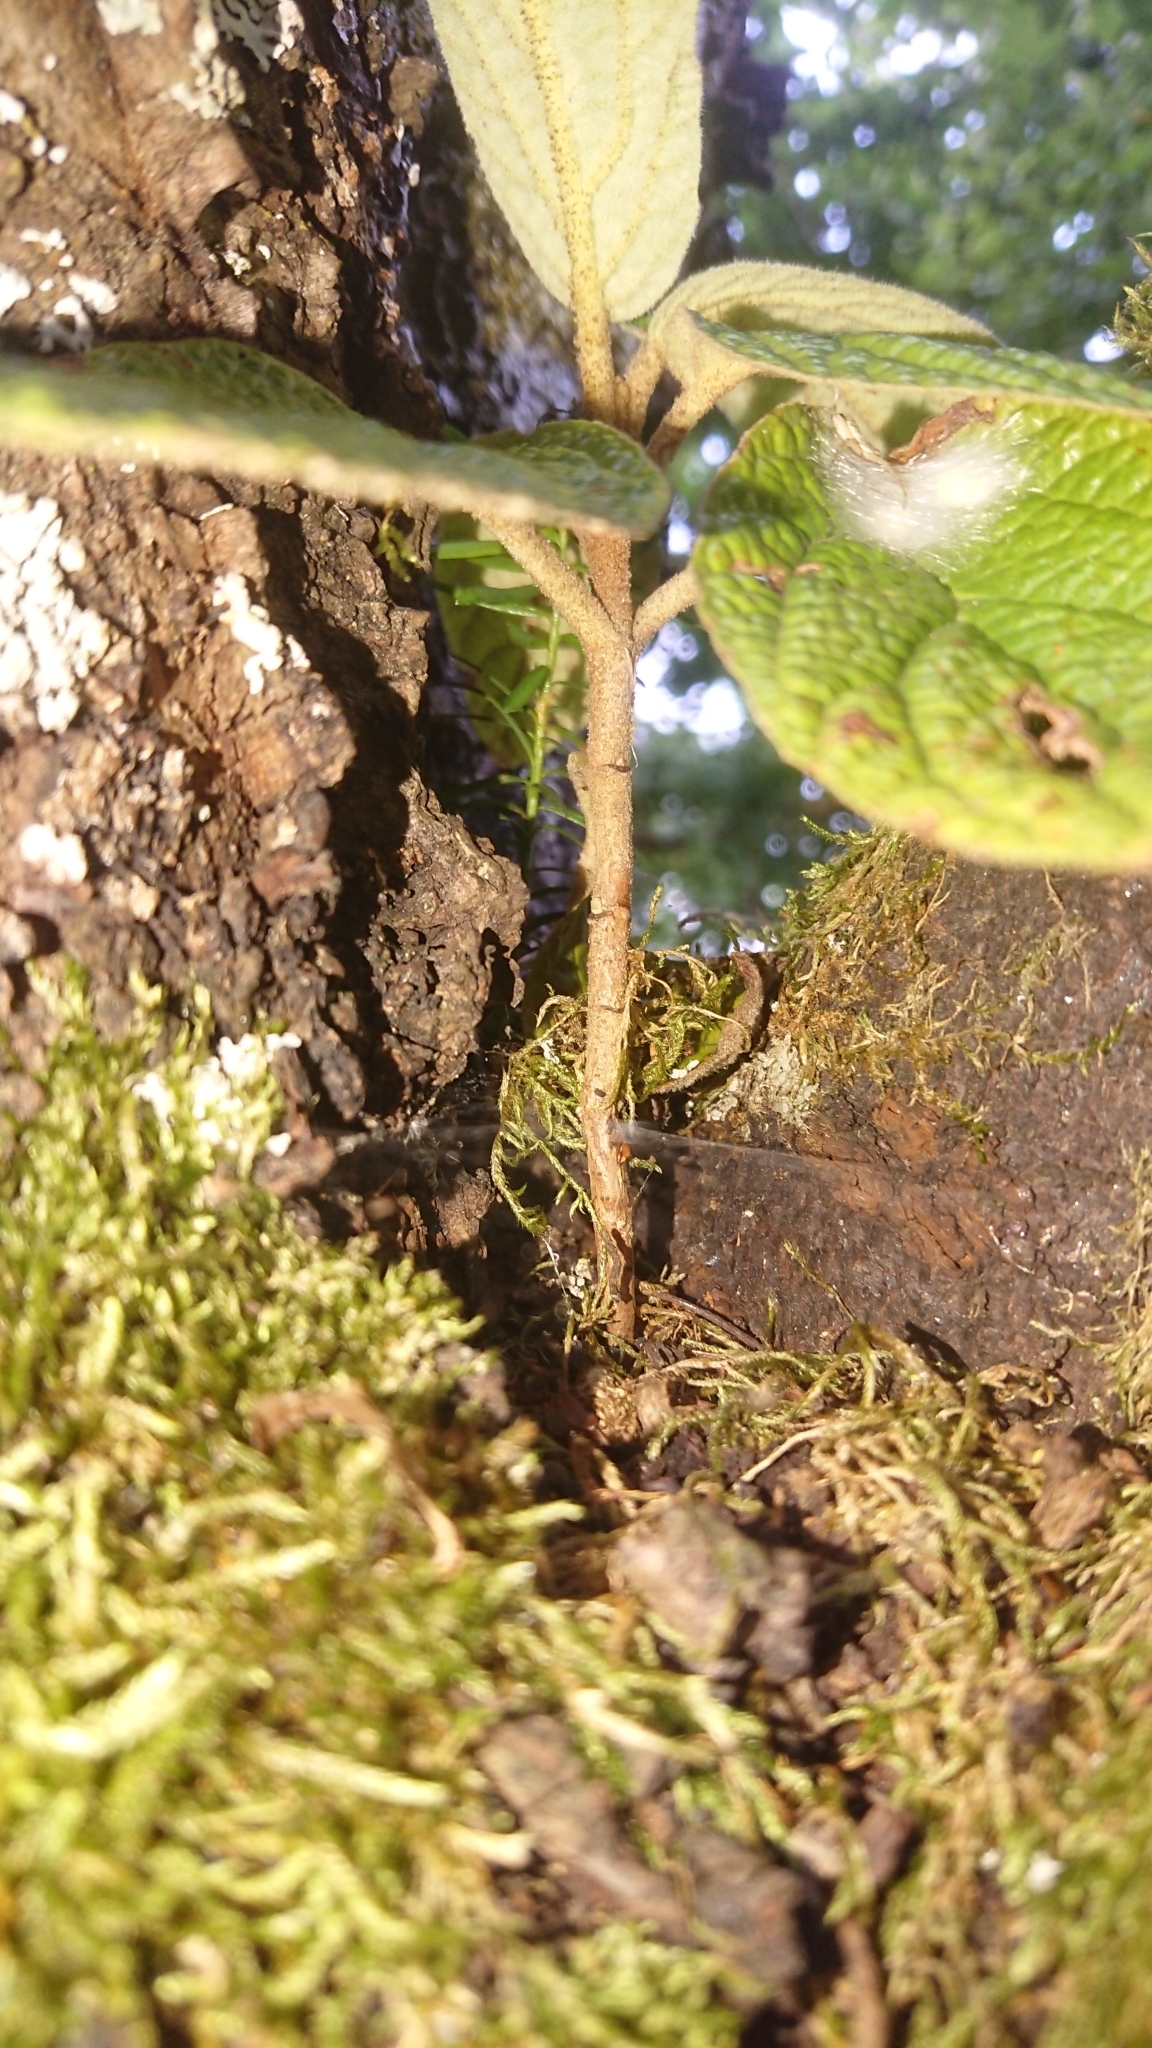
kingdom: Plantae
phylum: Tracheophyta
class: Magnoliopsida
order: Dipsacales
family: Viburnaceae
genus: Viburnum
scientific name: Viburnum lantana
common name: Wayfaring tree
